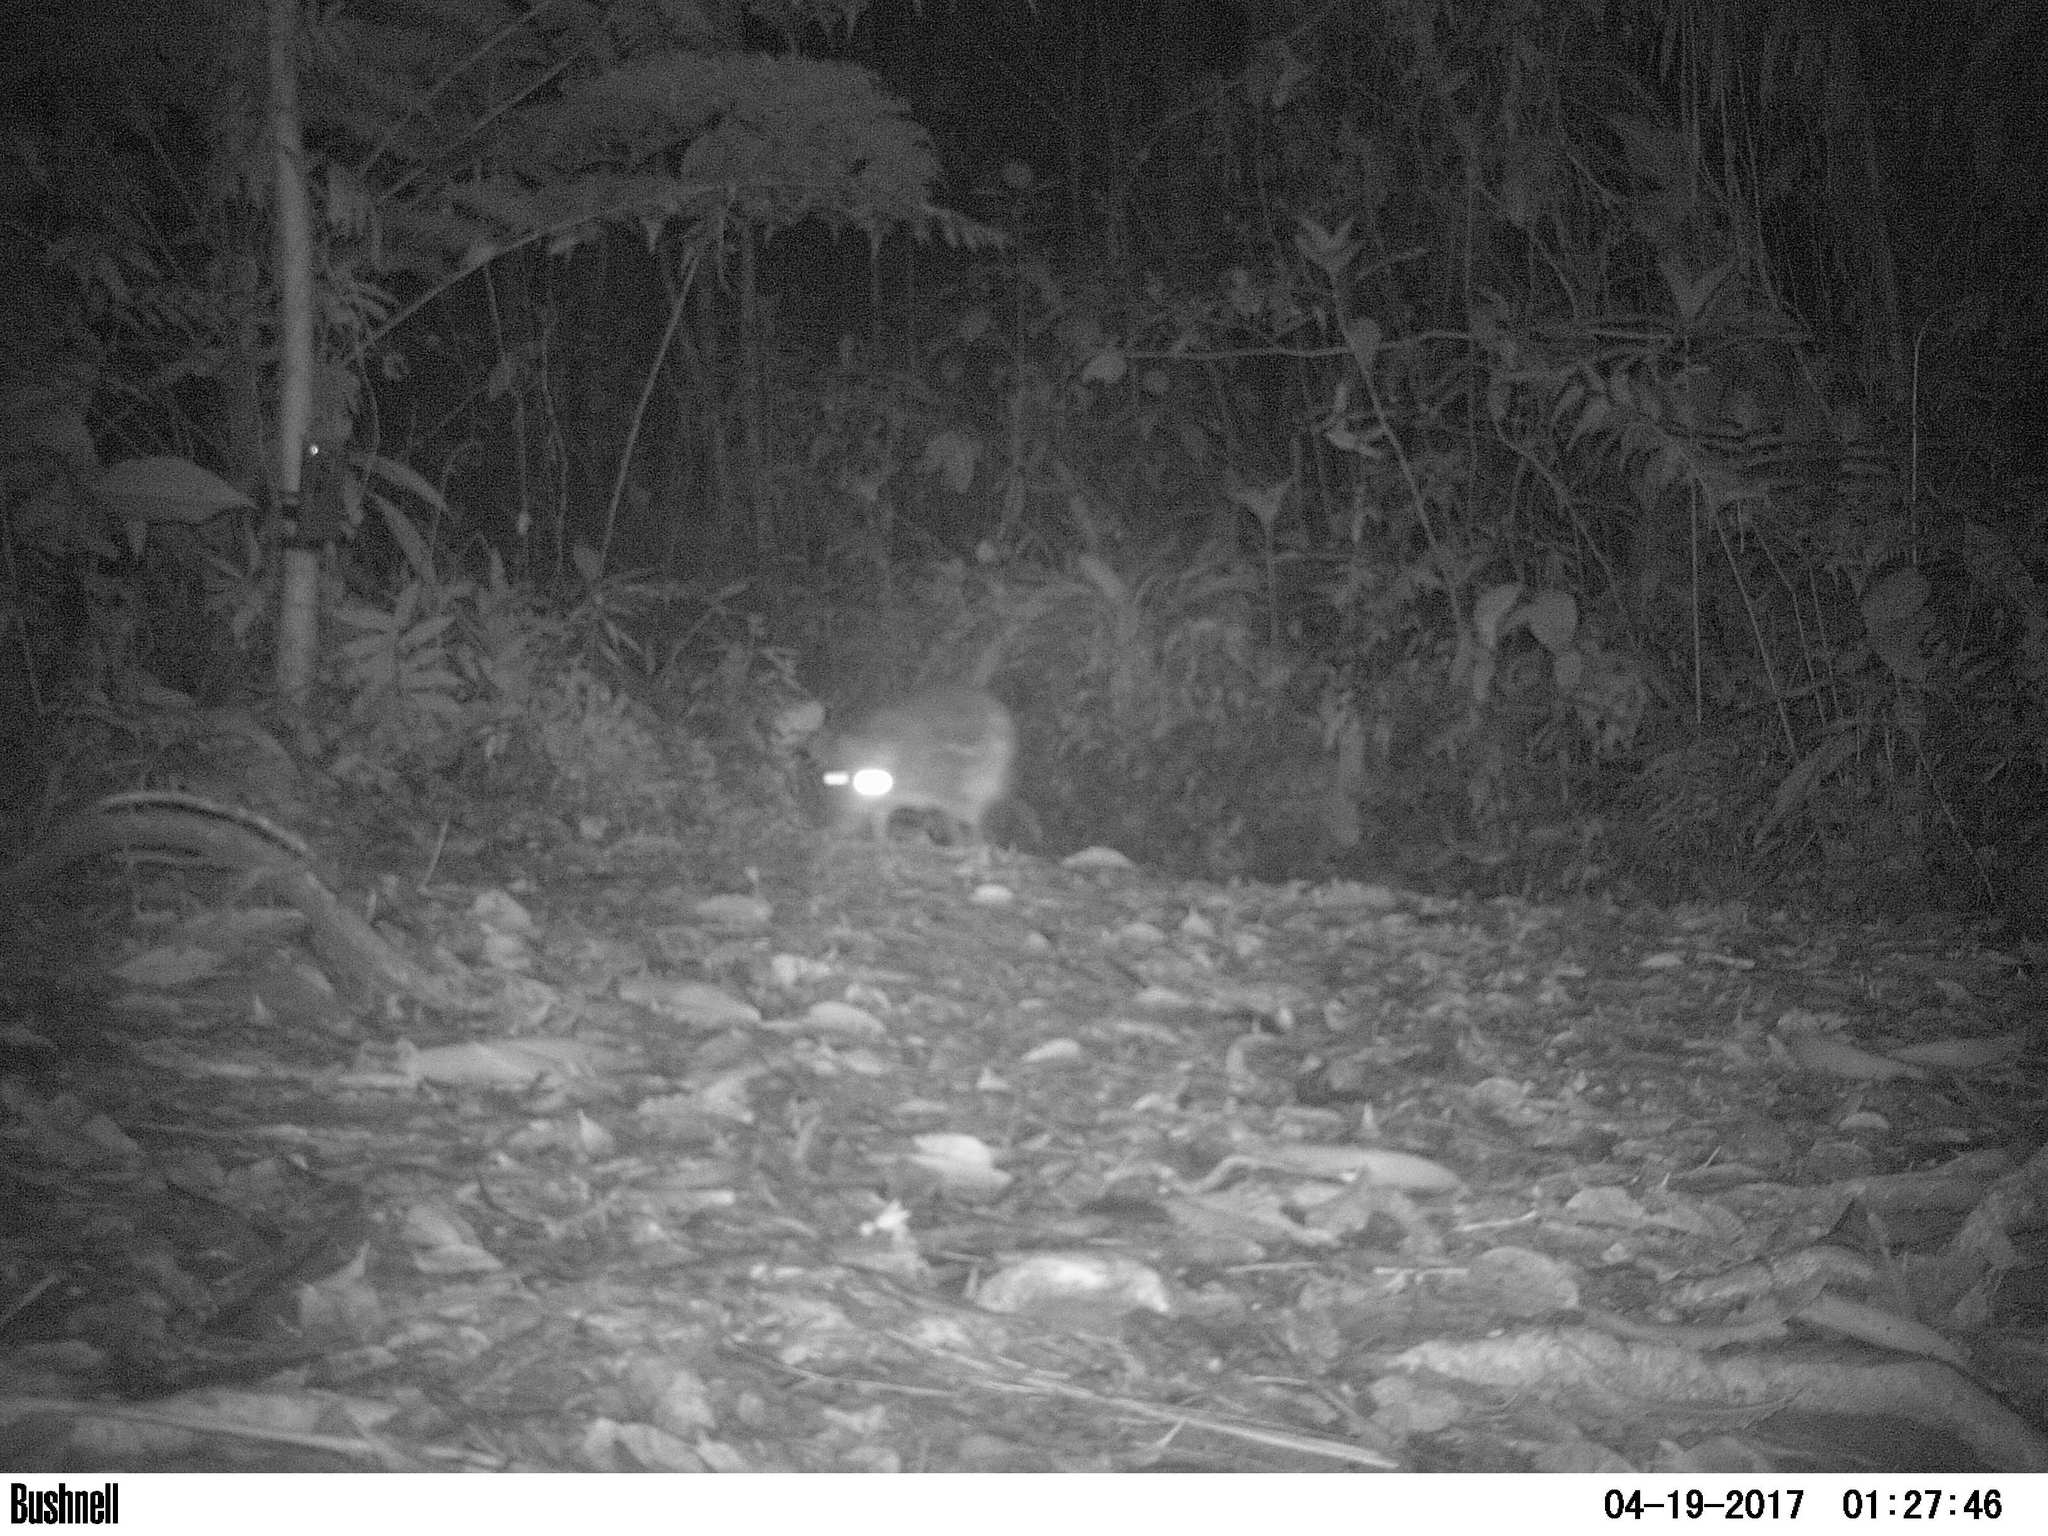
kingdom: Animalia
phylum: Chordata
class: Mammalia
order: Rodentia
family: Cuniculidae
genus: Cuniculus
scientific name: Cuniculus paca
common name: Lowland paca
